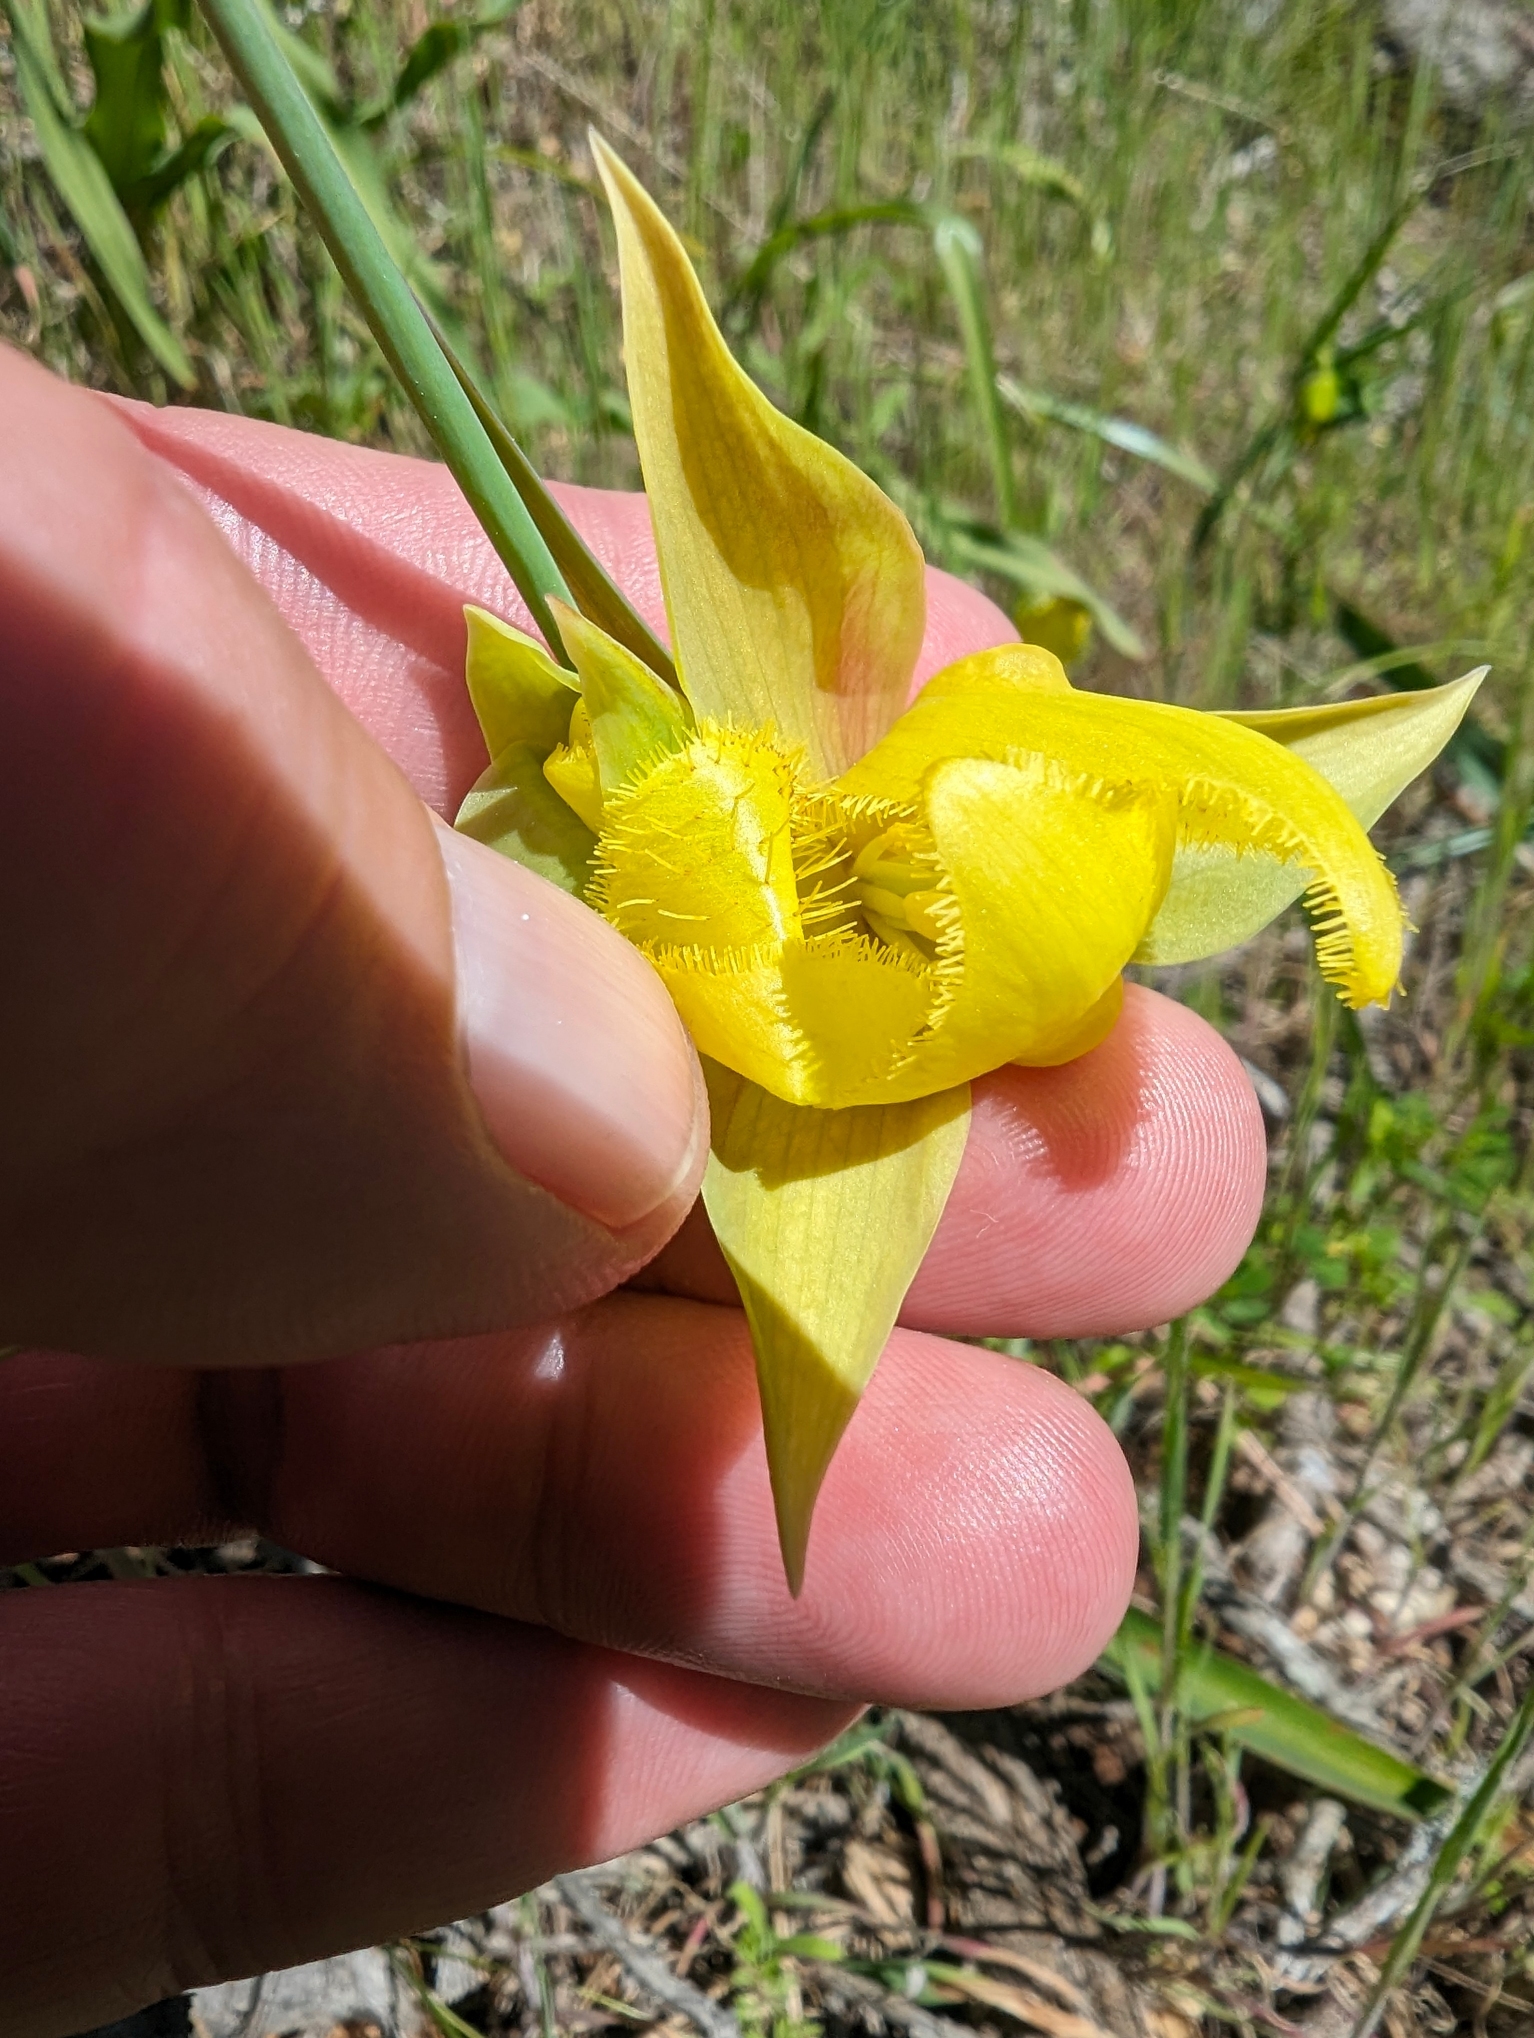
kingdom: Plantae
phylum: Tracheophyta
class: Liliopsida
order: Liliales
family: Liliaceae
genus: Calochortus
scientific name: Calochortus pulchellus
